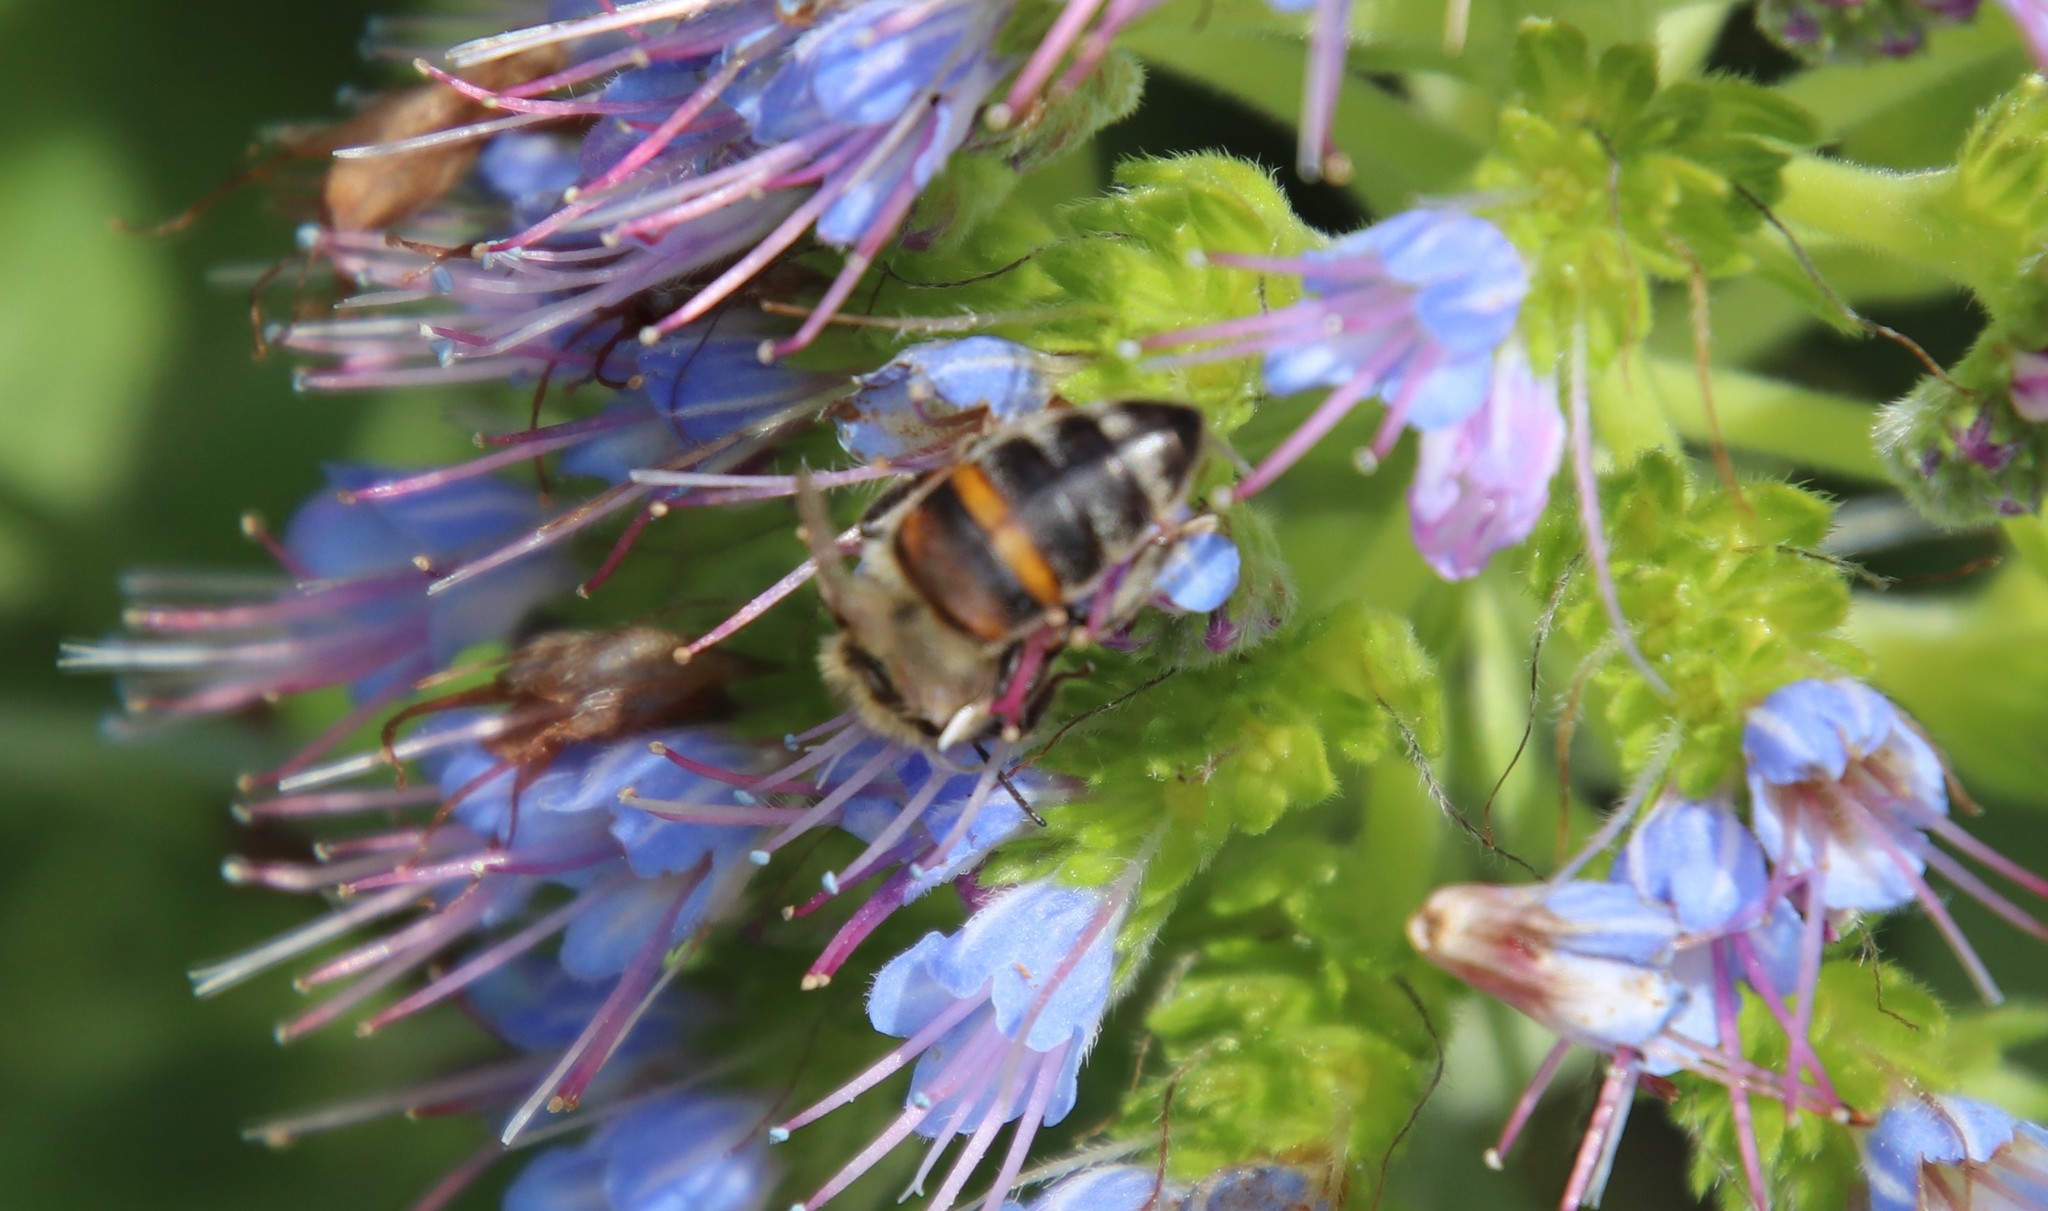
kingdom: Animalia
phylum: Arthropoda
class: Insecta
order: Hymenoptera
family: Apidae
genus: Apis
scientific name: Apis mellifera
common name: Honey bee
